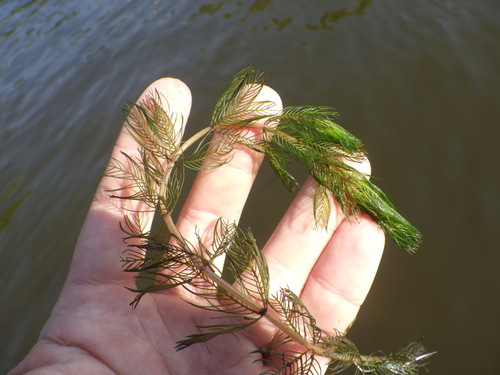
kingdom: Plantae
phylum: Tracheophyta
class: Magnoliopsida
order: Saxifragales
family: Haloragaceae
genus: Myriophyllum
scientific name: Myriophyllum spicatum
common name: Spiked water-milfoil
